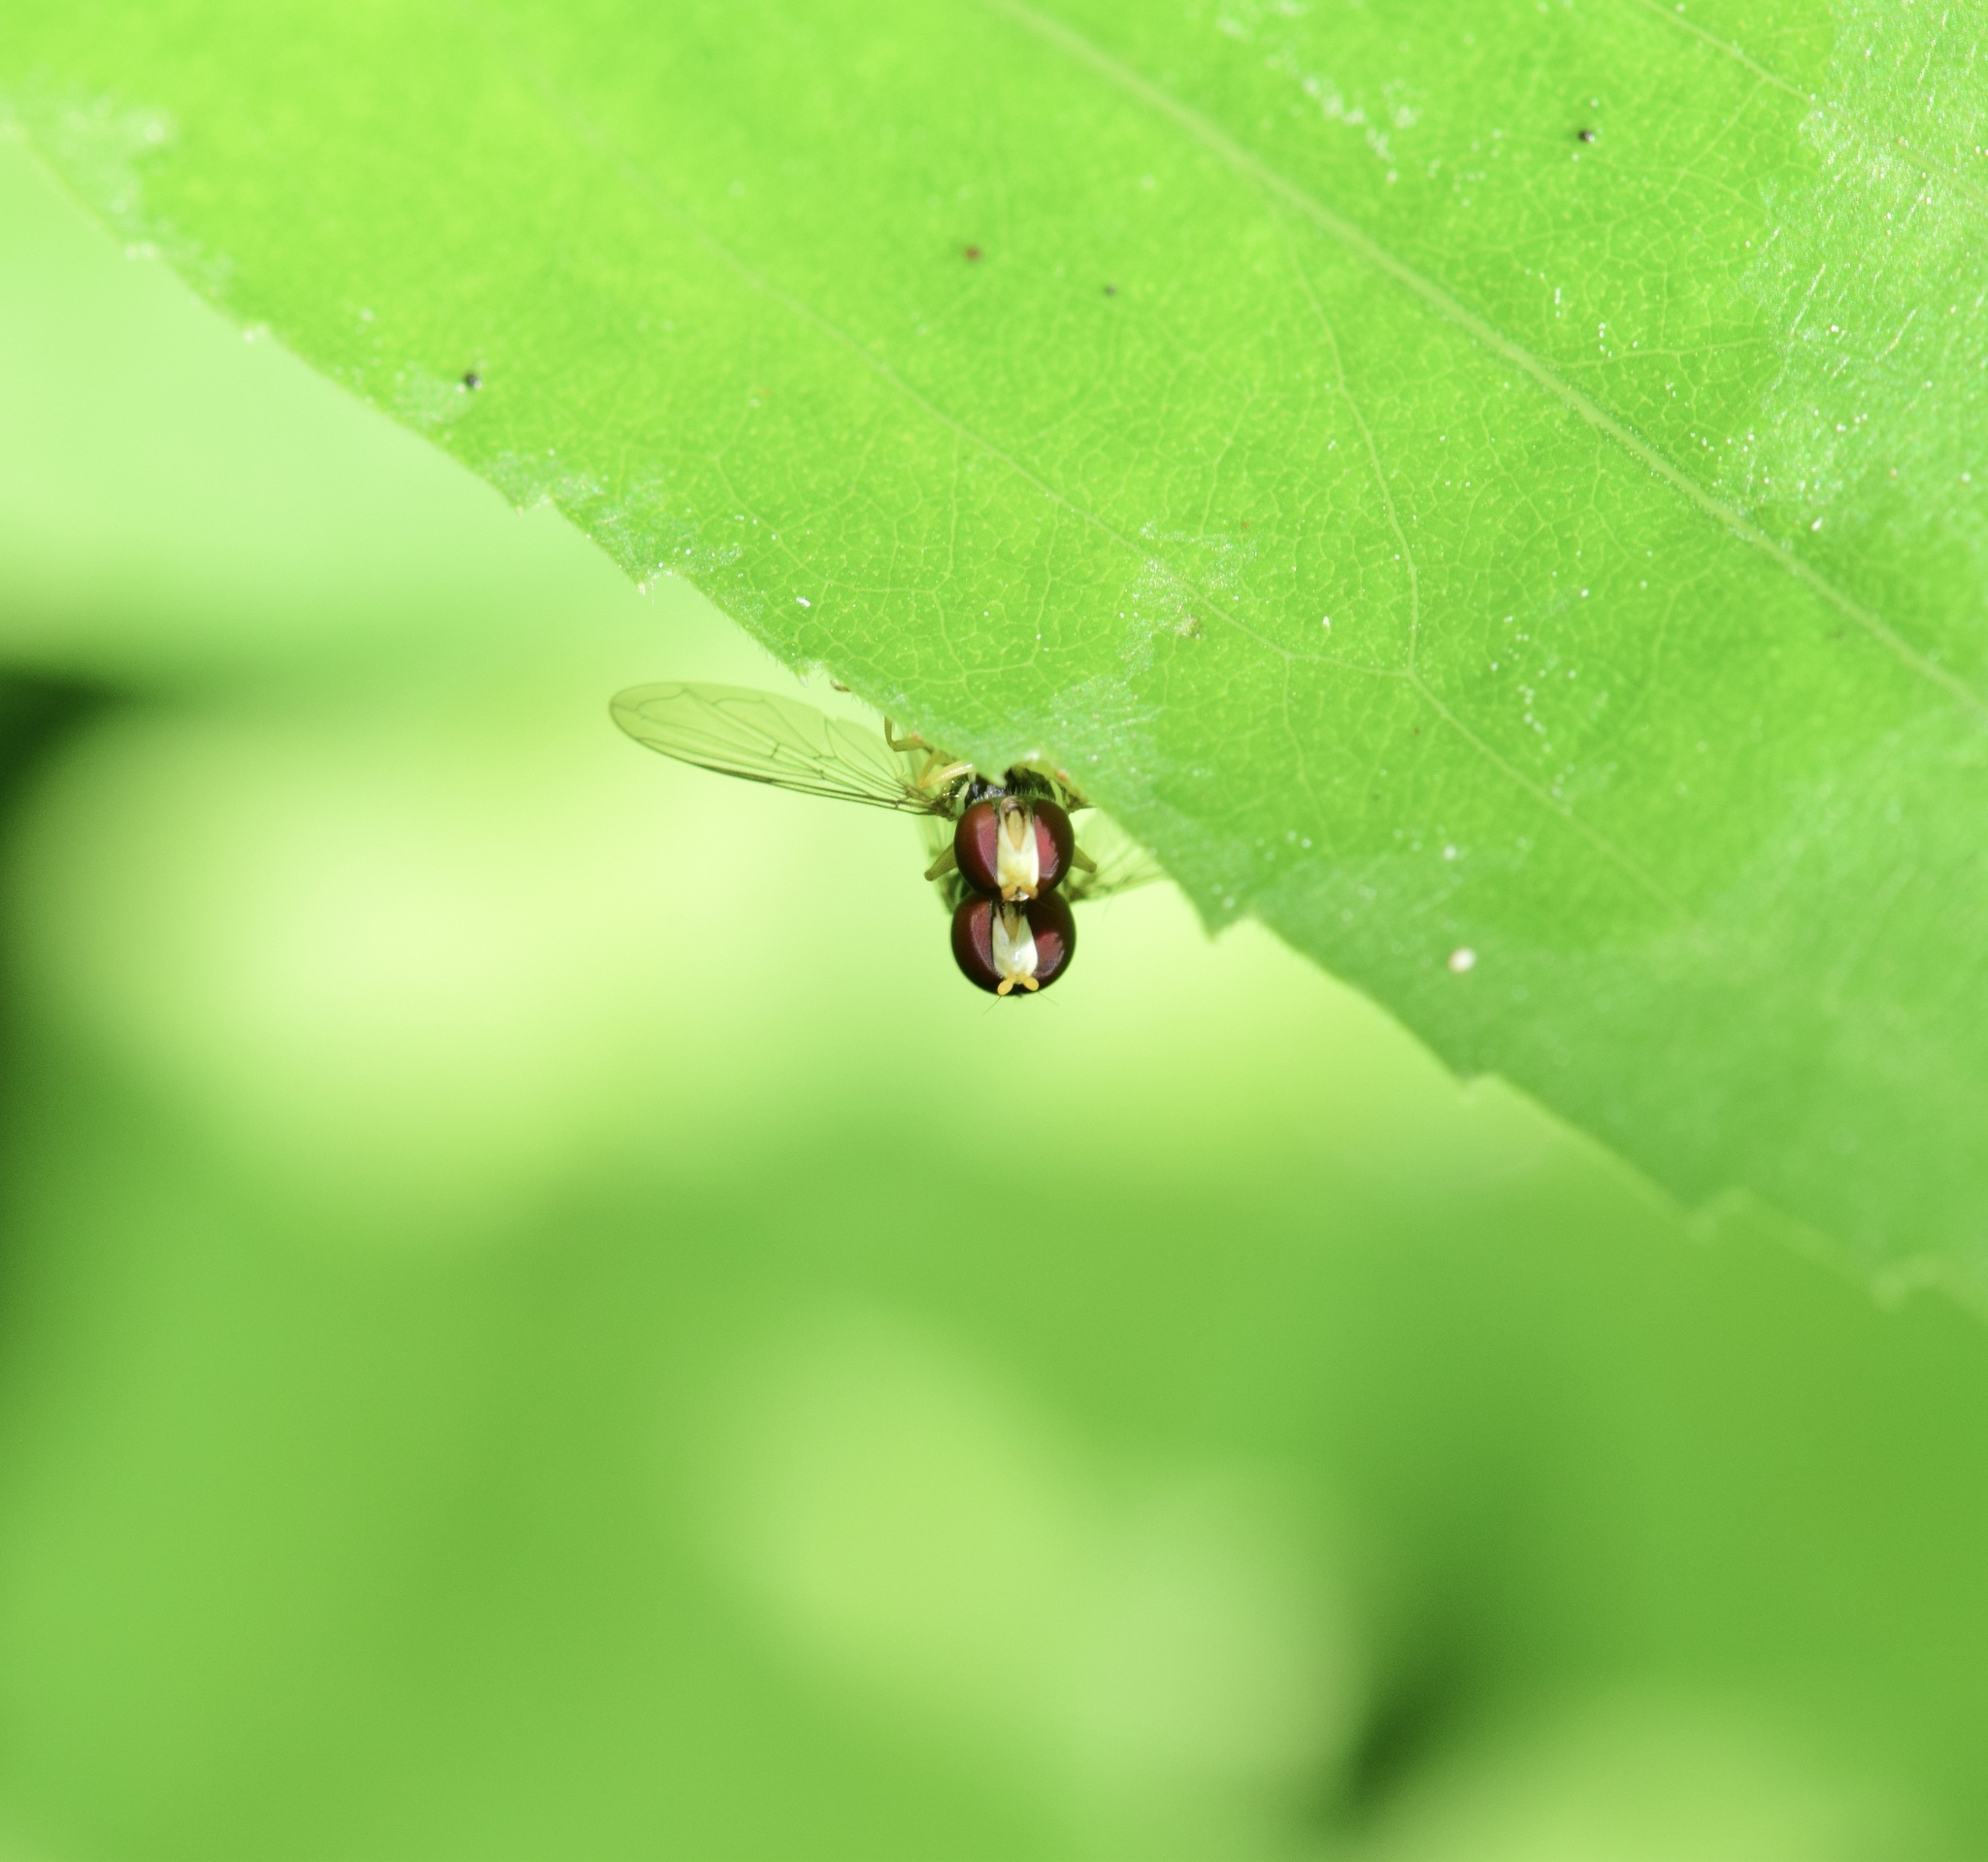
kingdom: Animalia
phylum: Arthropoda
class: Insecta
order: Diptera
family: Syrphidae
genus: Toxomerus
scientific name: Toxomerus
